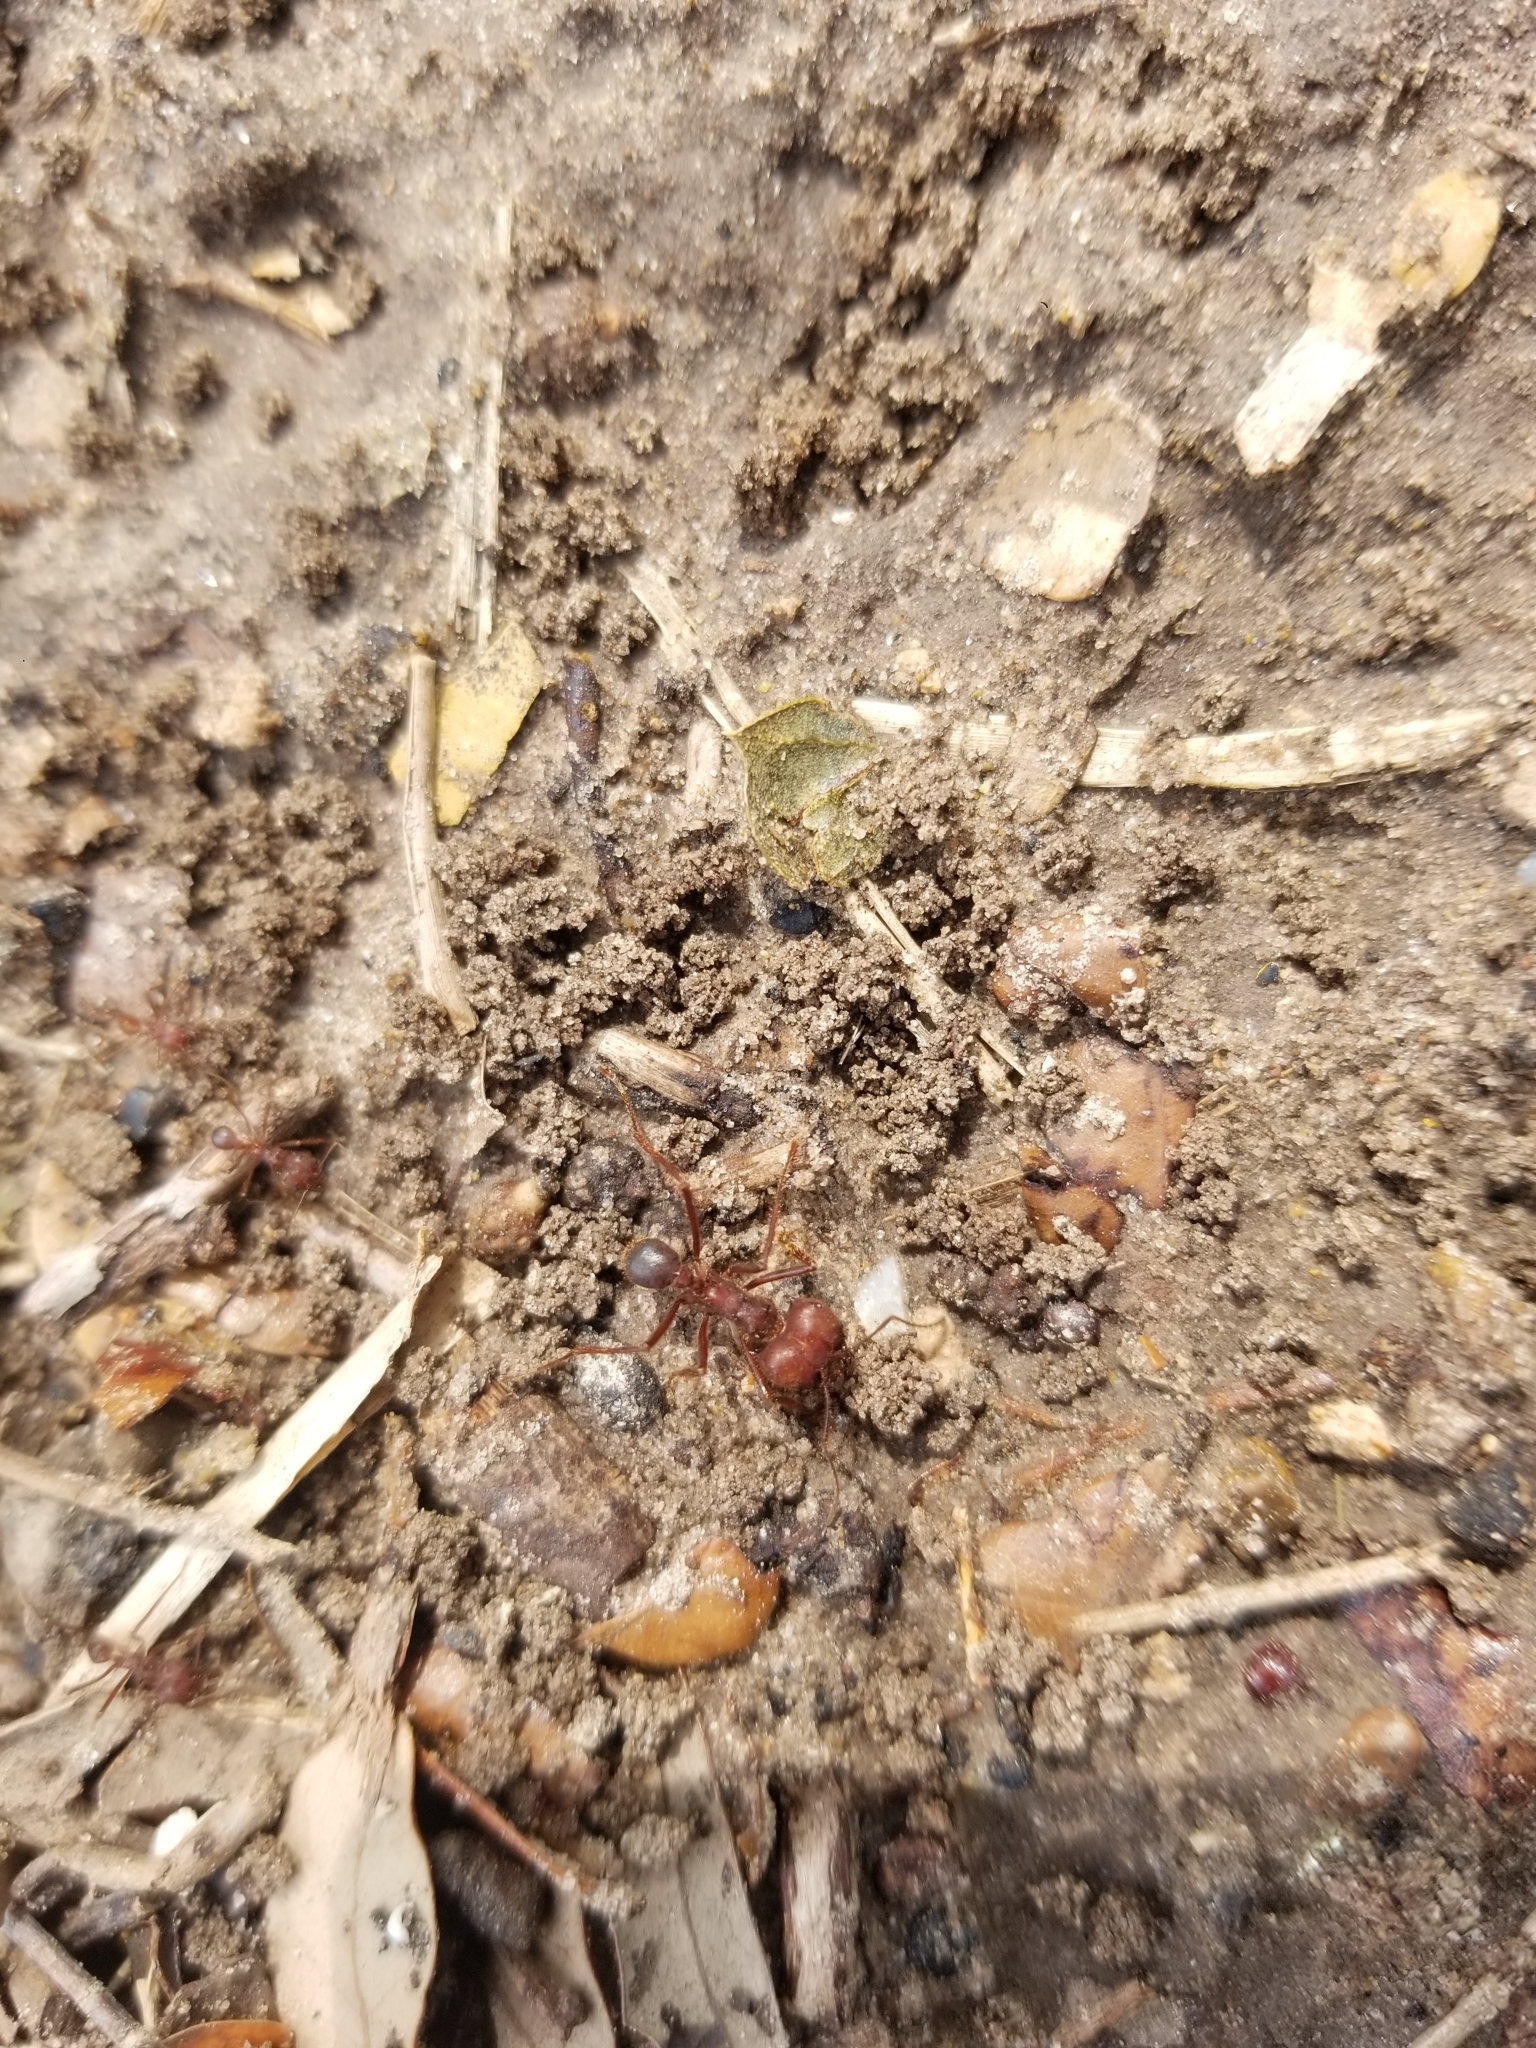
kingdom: Animalia
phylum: Arthropoda
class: Insecta
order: Hymenoptera
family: Formicidae
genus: Atta
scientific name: Atta texana
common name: Texas leafcutting ant
